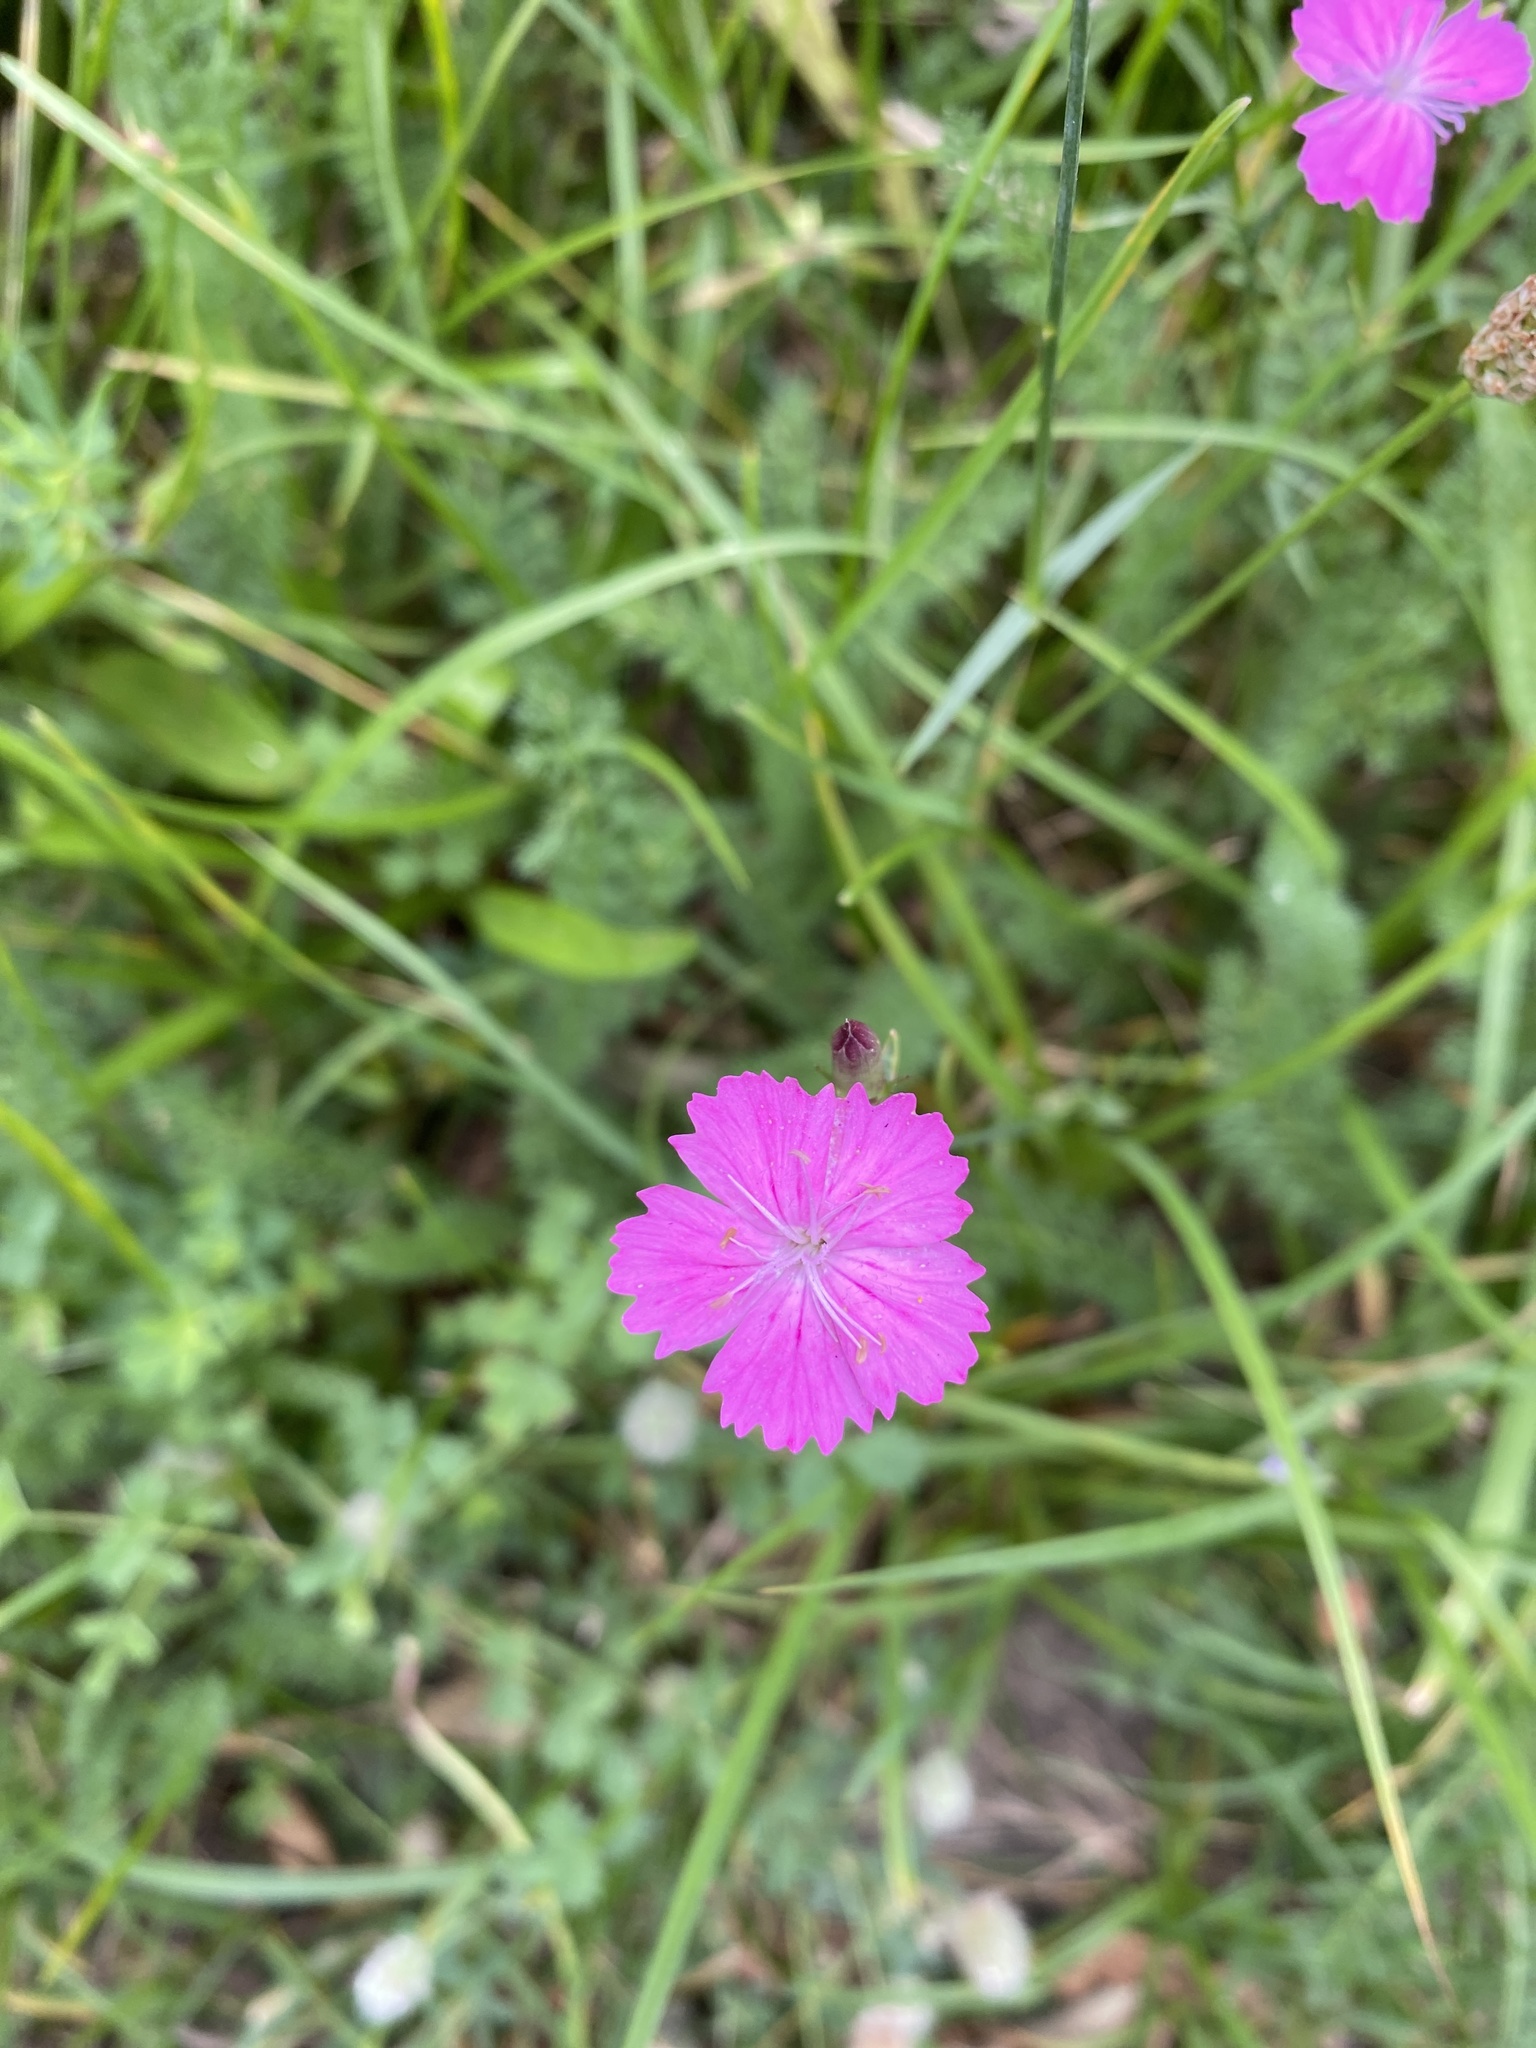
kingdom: Plantae
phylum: Tracheophyta
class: Magnoliopsida
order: Caryophyllales
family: Caryophyllaceae
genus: Dianthus
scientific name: Dianthus carthusianorum
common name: Carthusian pink
